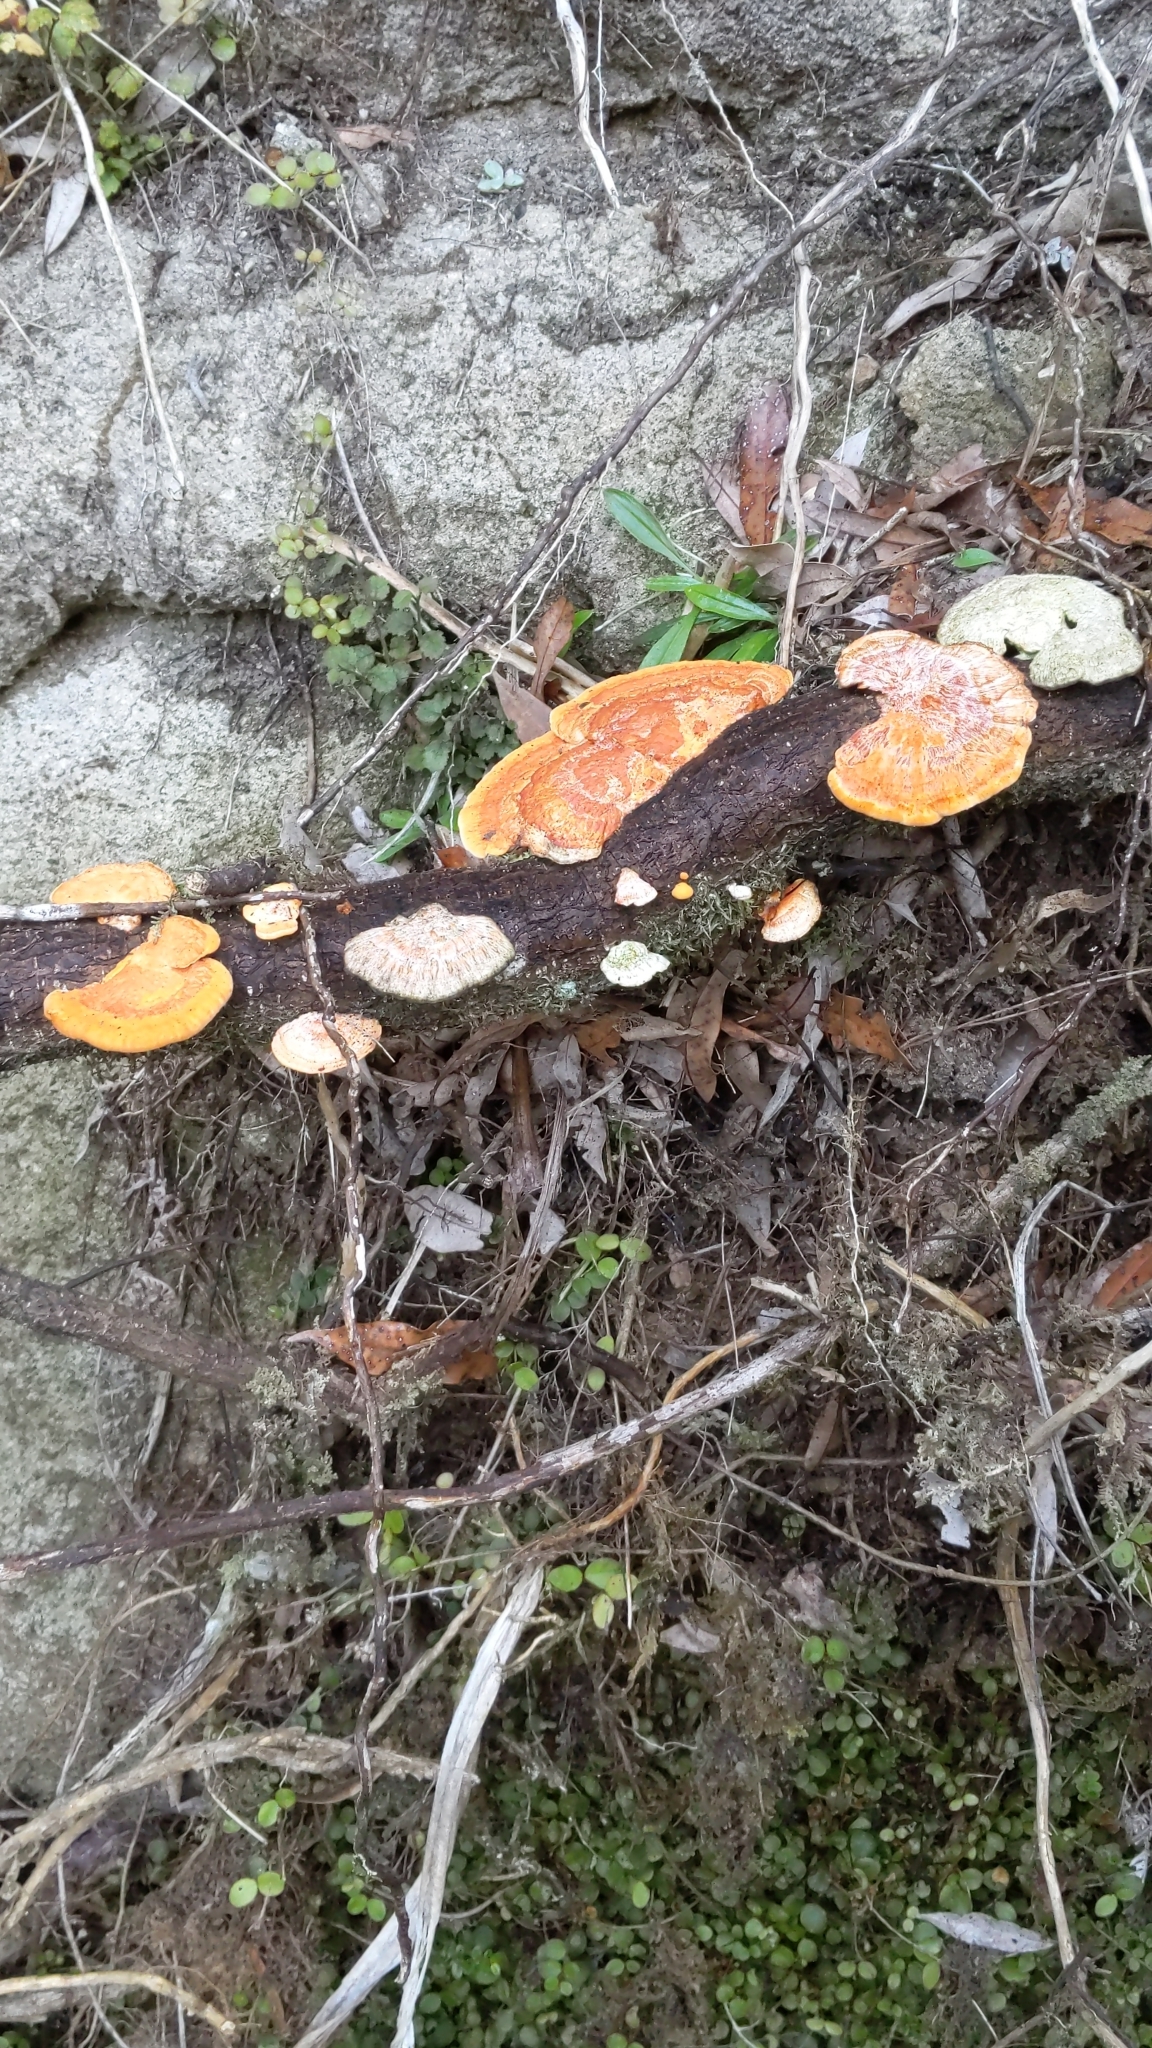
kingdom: Fungi
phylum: Basidiomycota
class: Agaricomycetes
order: Polyporales
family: Polyporaceae
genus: Trametes
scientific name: Trametes coccinea
